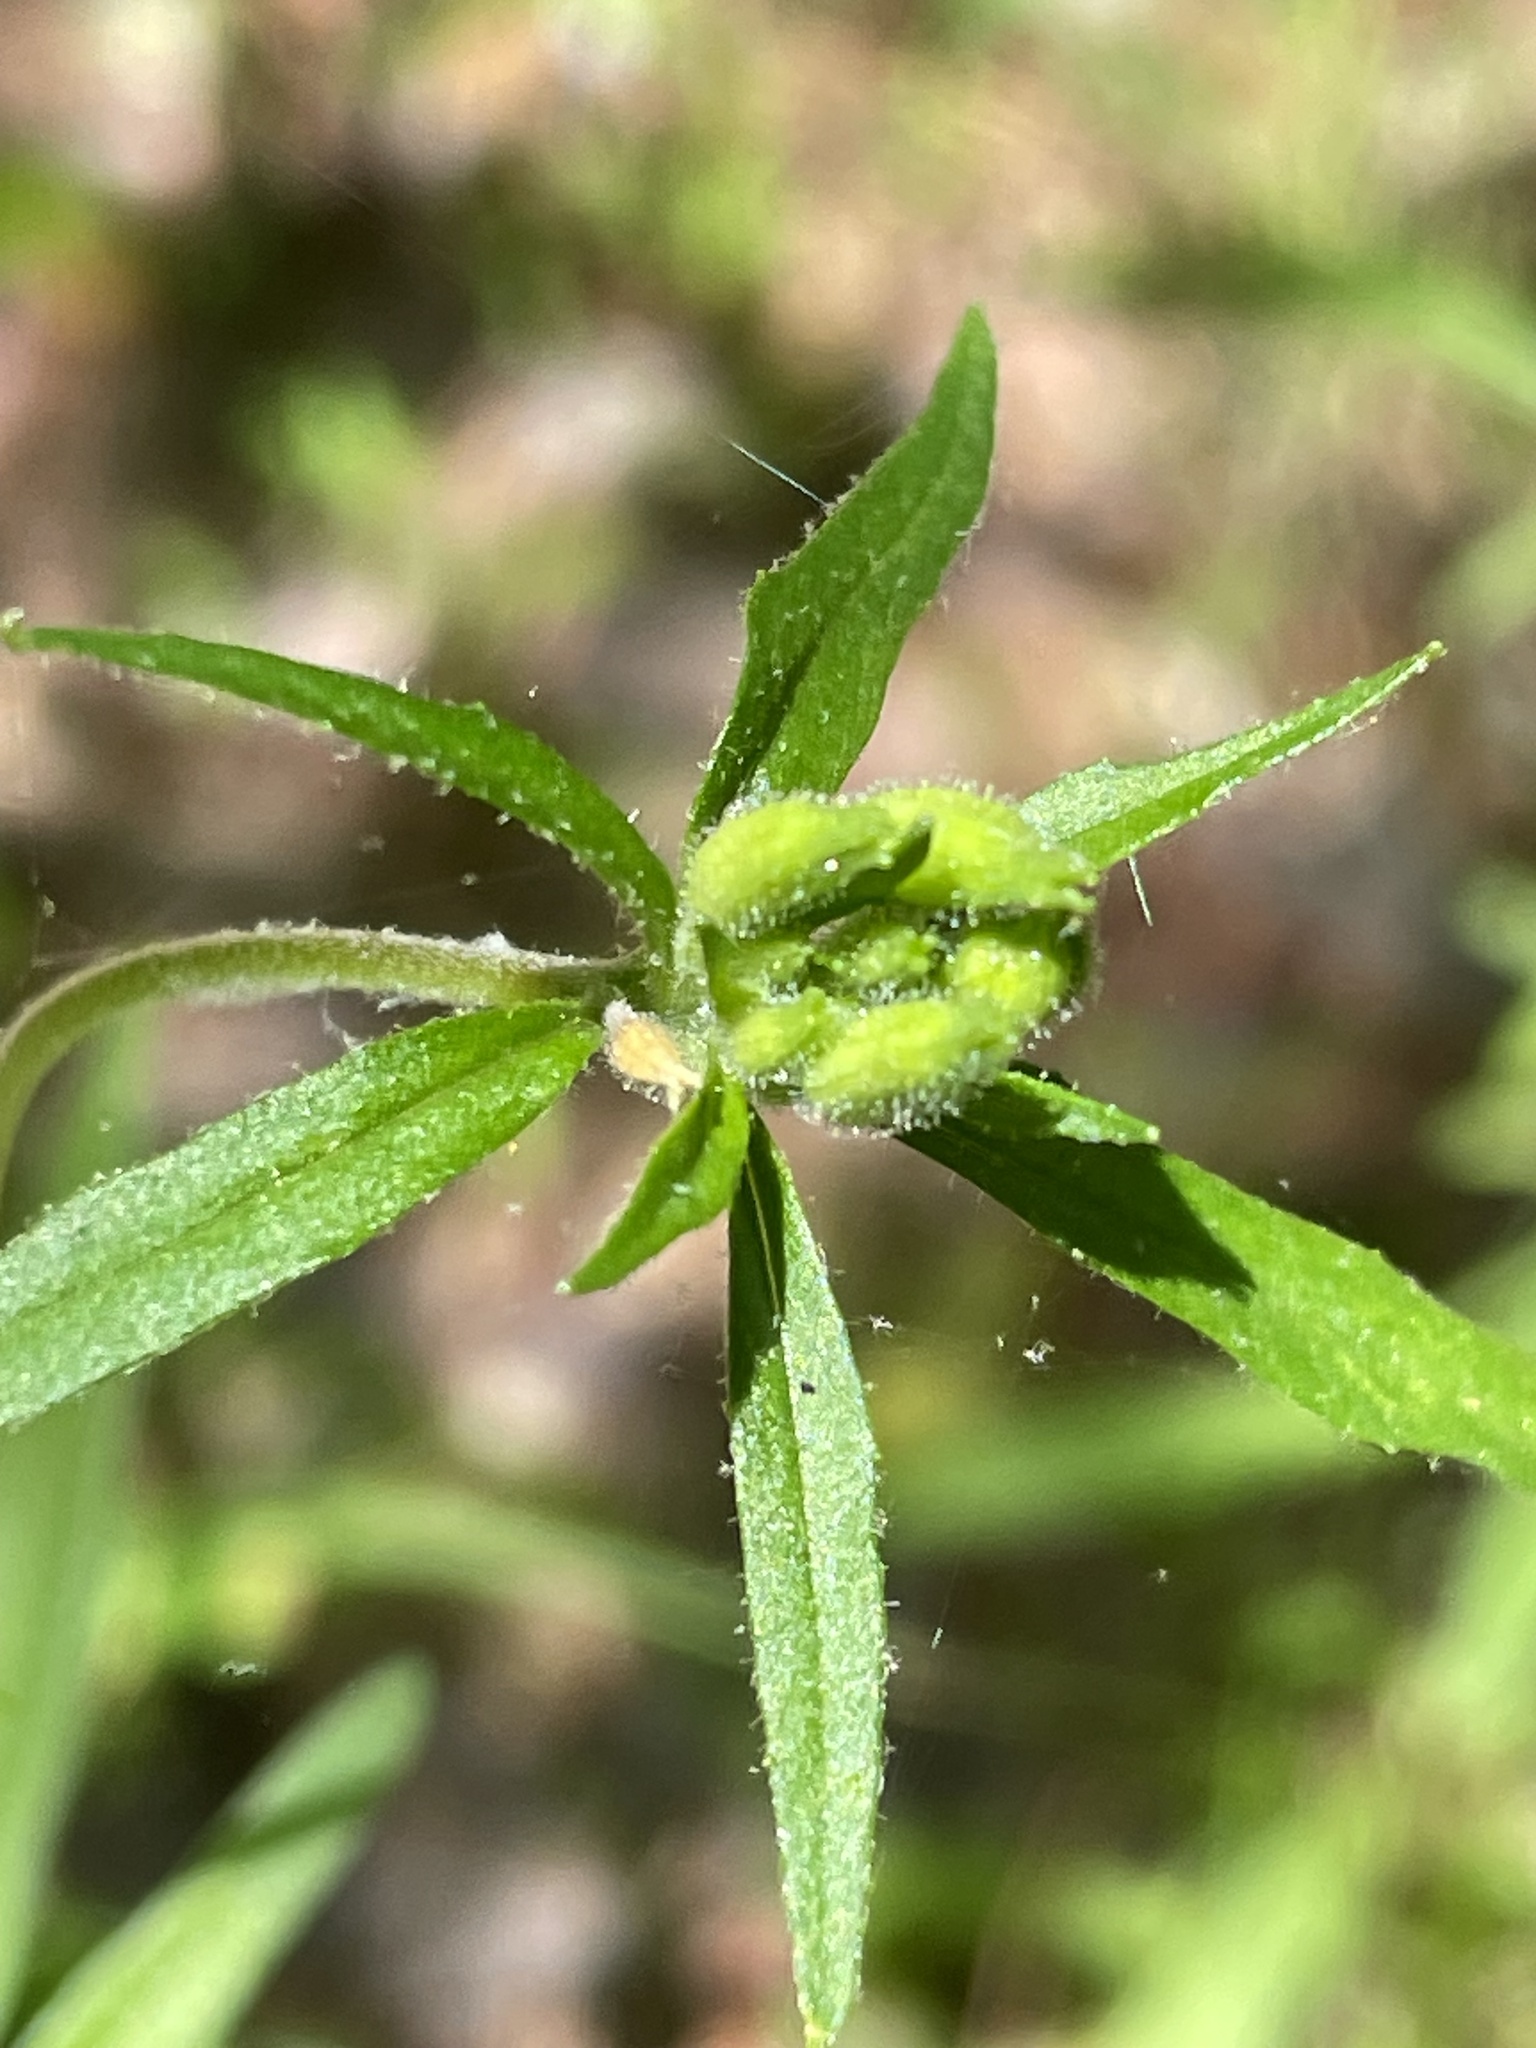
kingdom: Plantae
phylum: Tracheophyta
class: Magnoliopsida
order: Myrtales
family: Onagraceae
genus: Oenothera
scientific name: Oenothera fruticosa
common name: Southern sundrops
